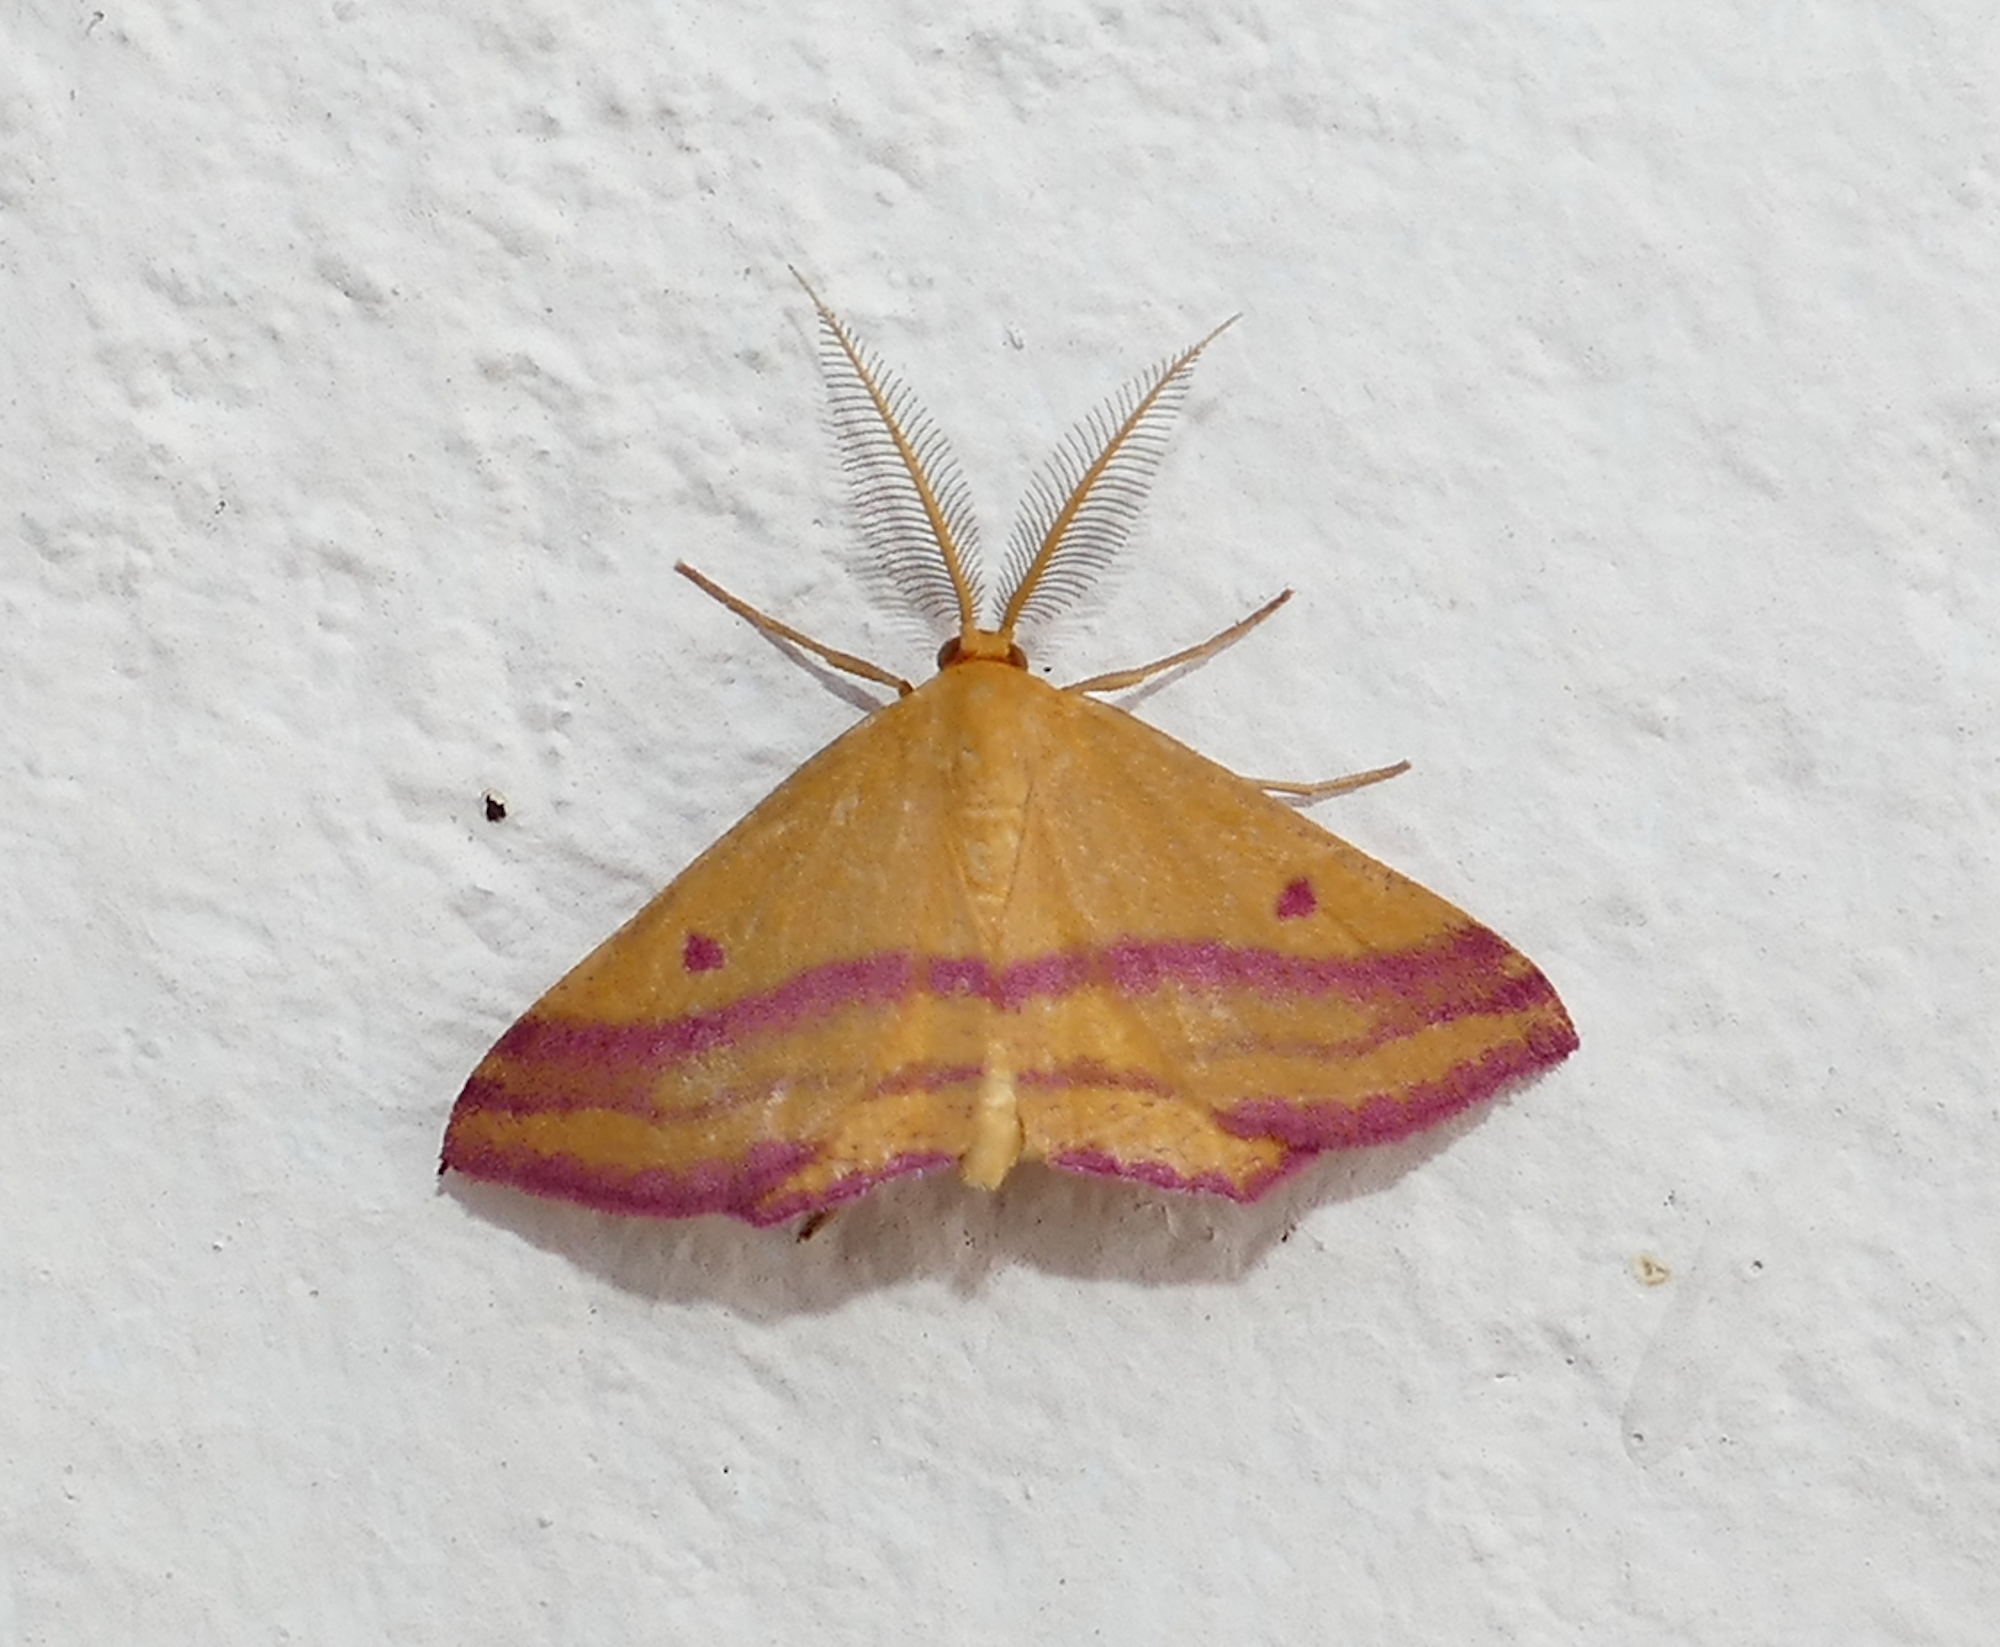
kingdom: Animalia
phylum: Arthropoda
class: Insecta
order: Lepidoptera
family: Geometridae
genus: Haematopis
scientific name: Haematopis grataria
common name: Chickweed geometer
